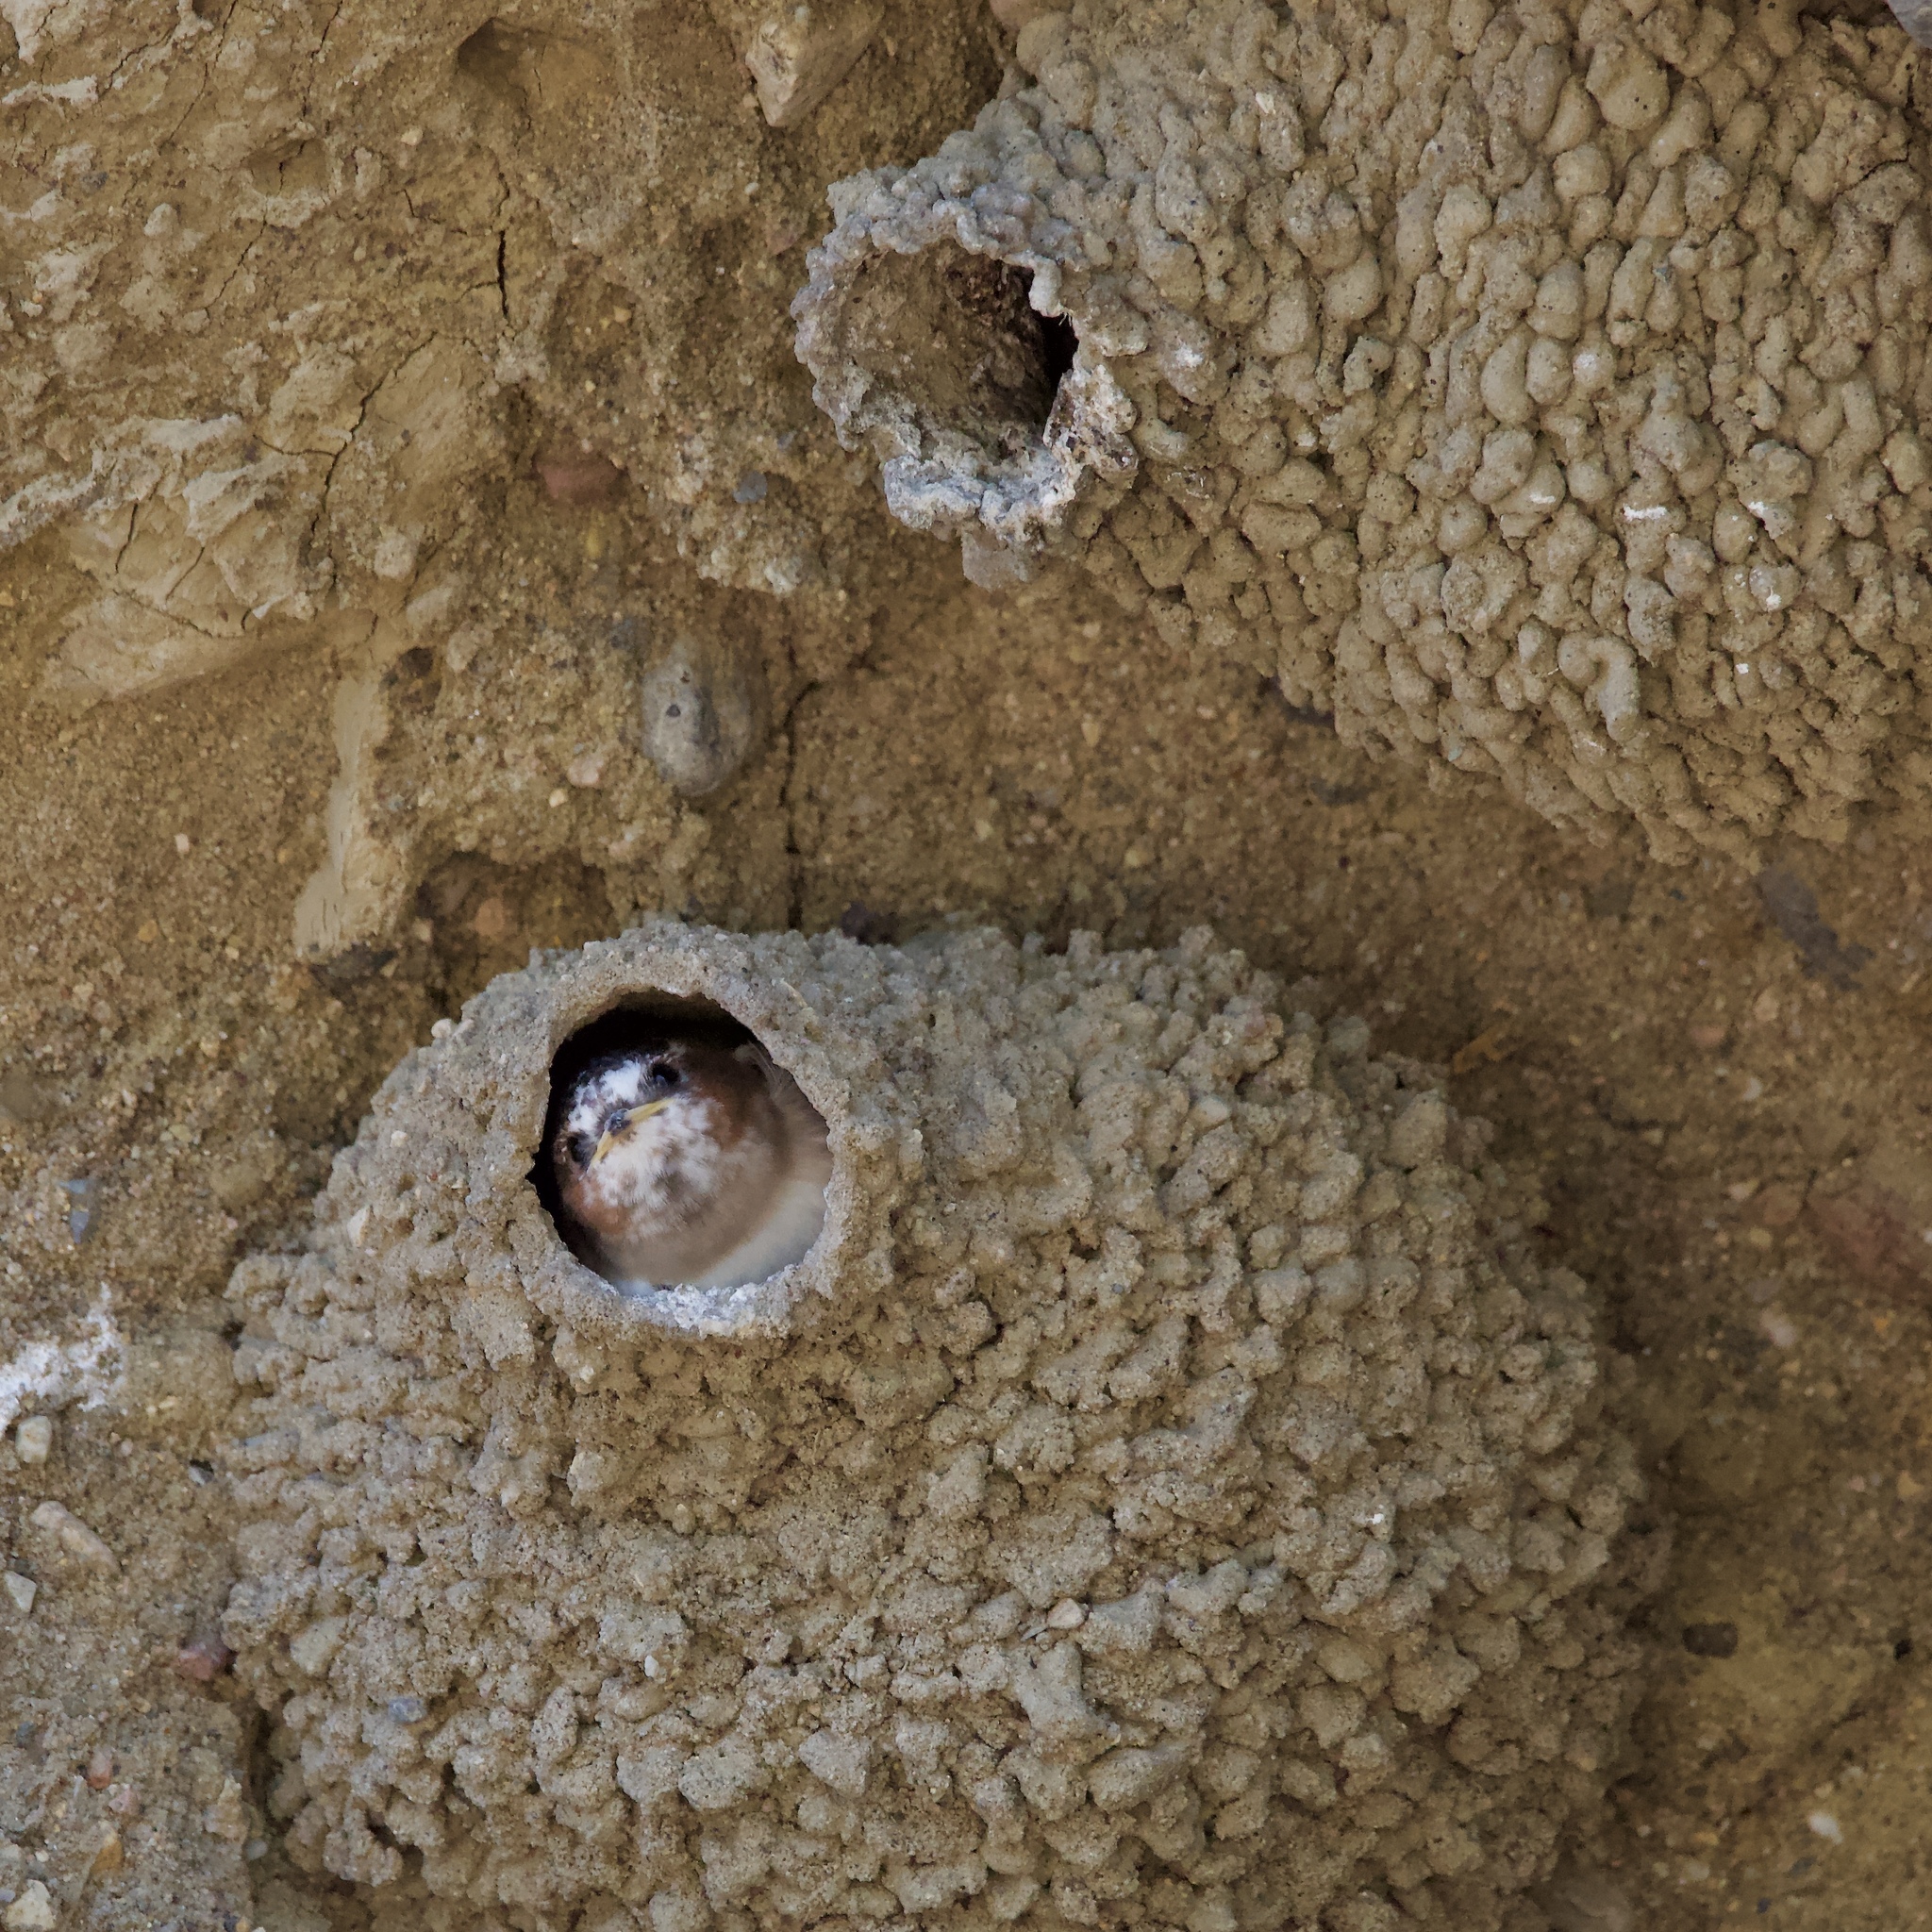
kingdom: Animalia
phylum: Chordata
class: Aves
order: Passeriformes
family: Hirundinidae
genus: Petrochelidon
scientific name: Petrochelidon pyrrhonota
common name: American cliff swallow
